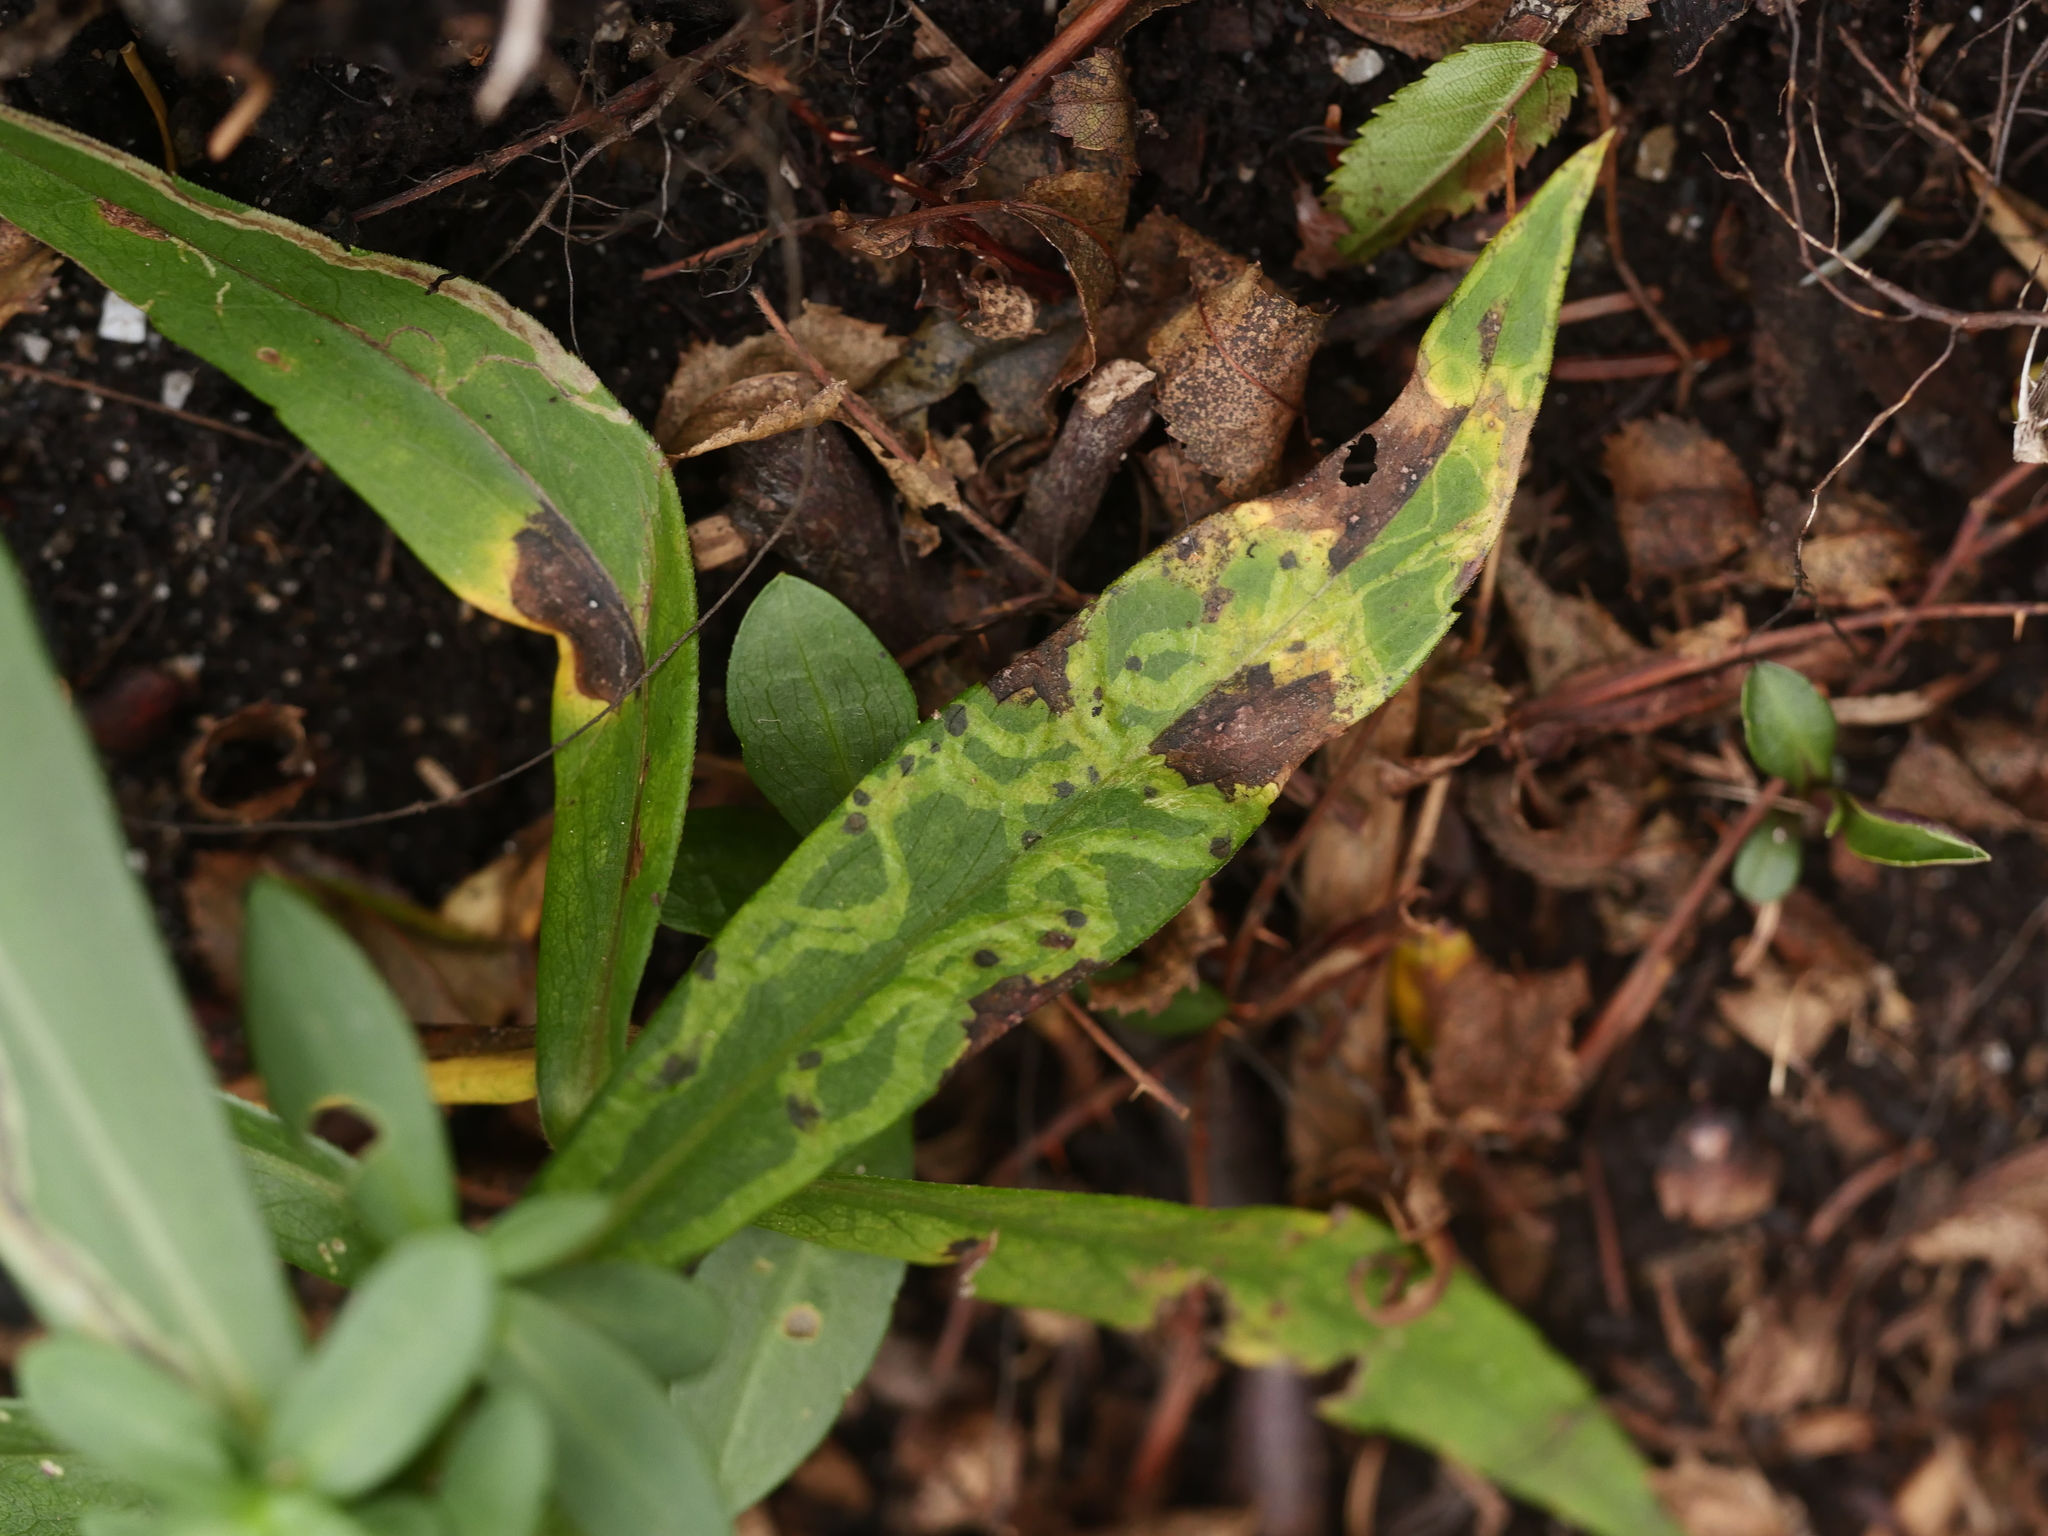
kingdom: Animalia
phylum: Arthropoda
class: Insecta
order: Diptera
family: Agromyzidae
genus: Ophiomyia
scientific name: Ophiomyia parda
